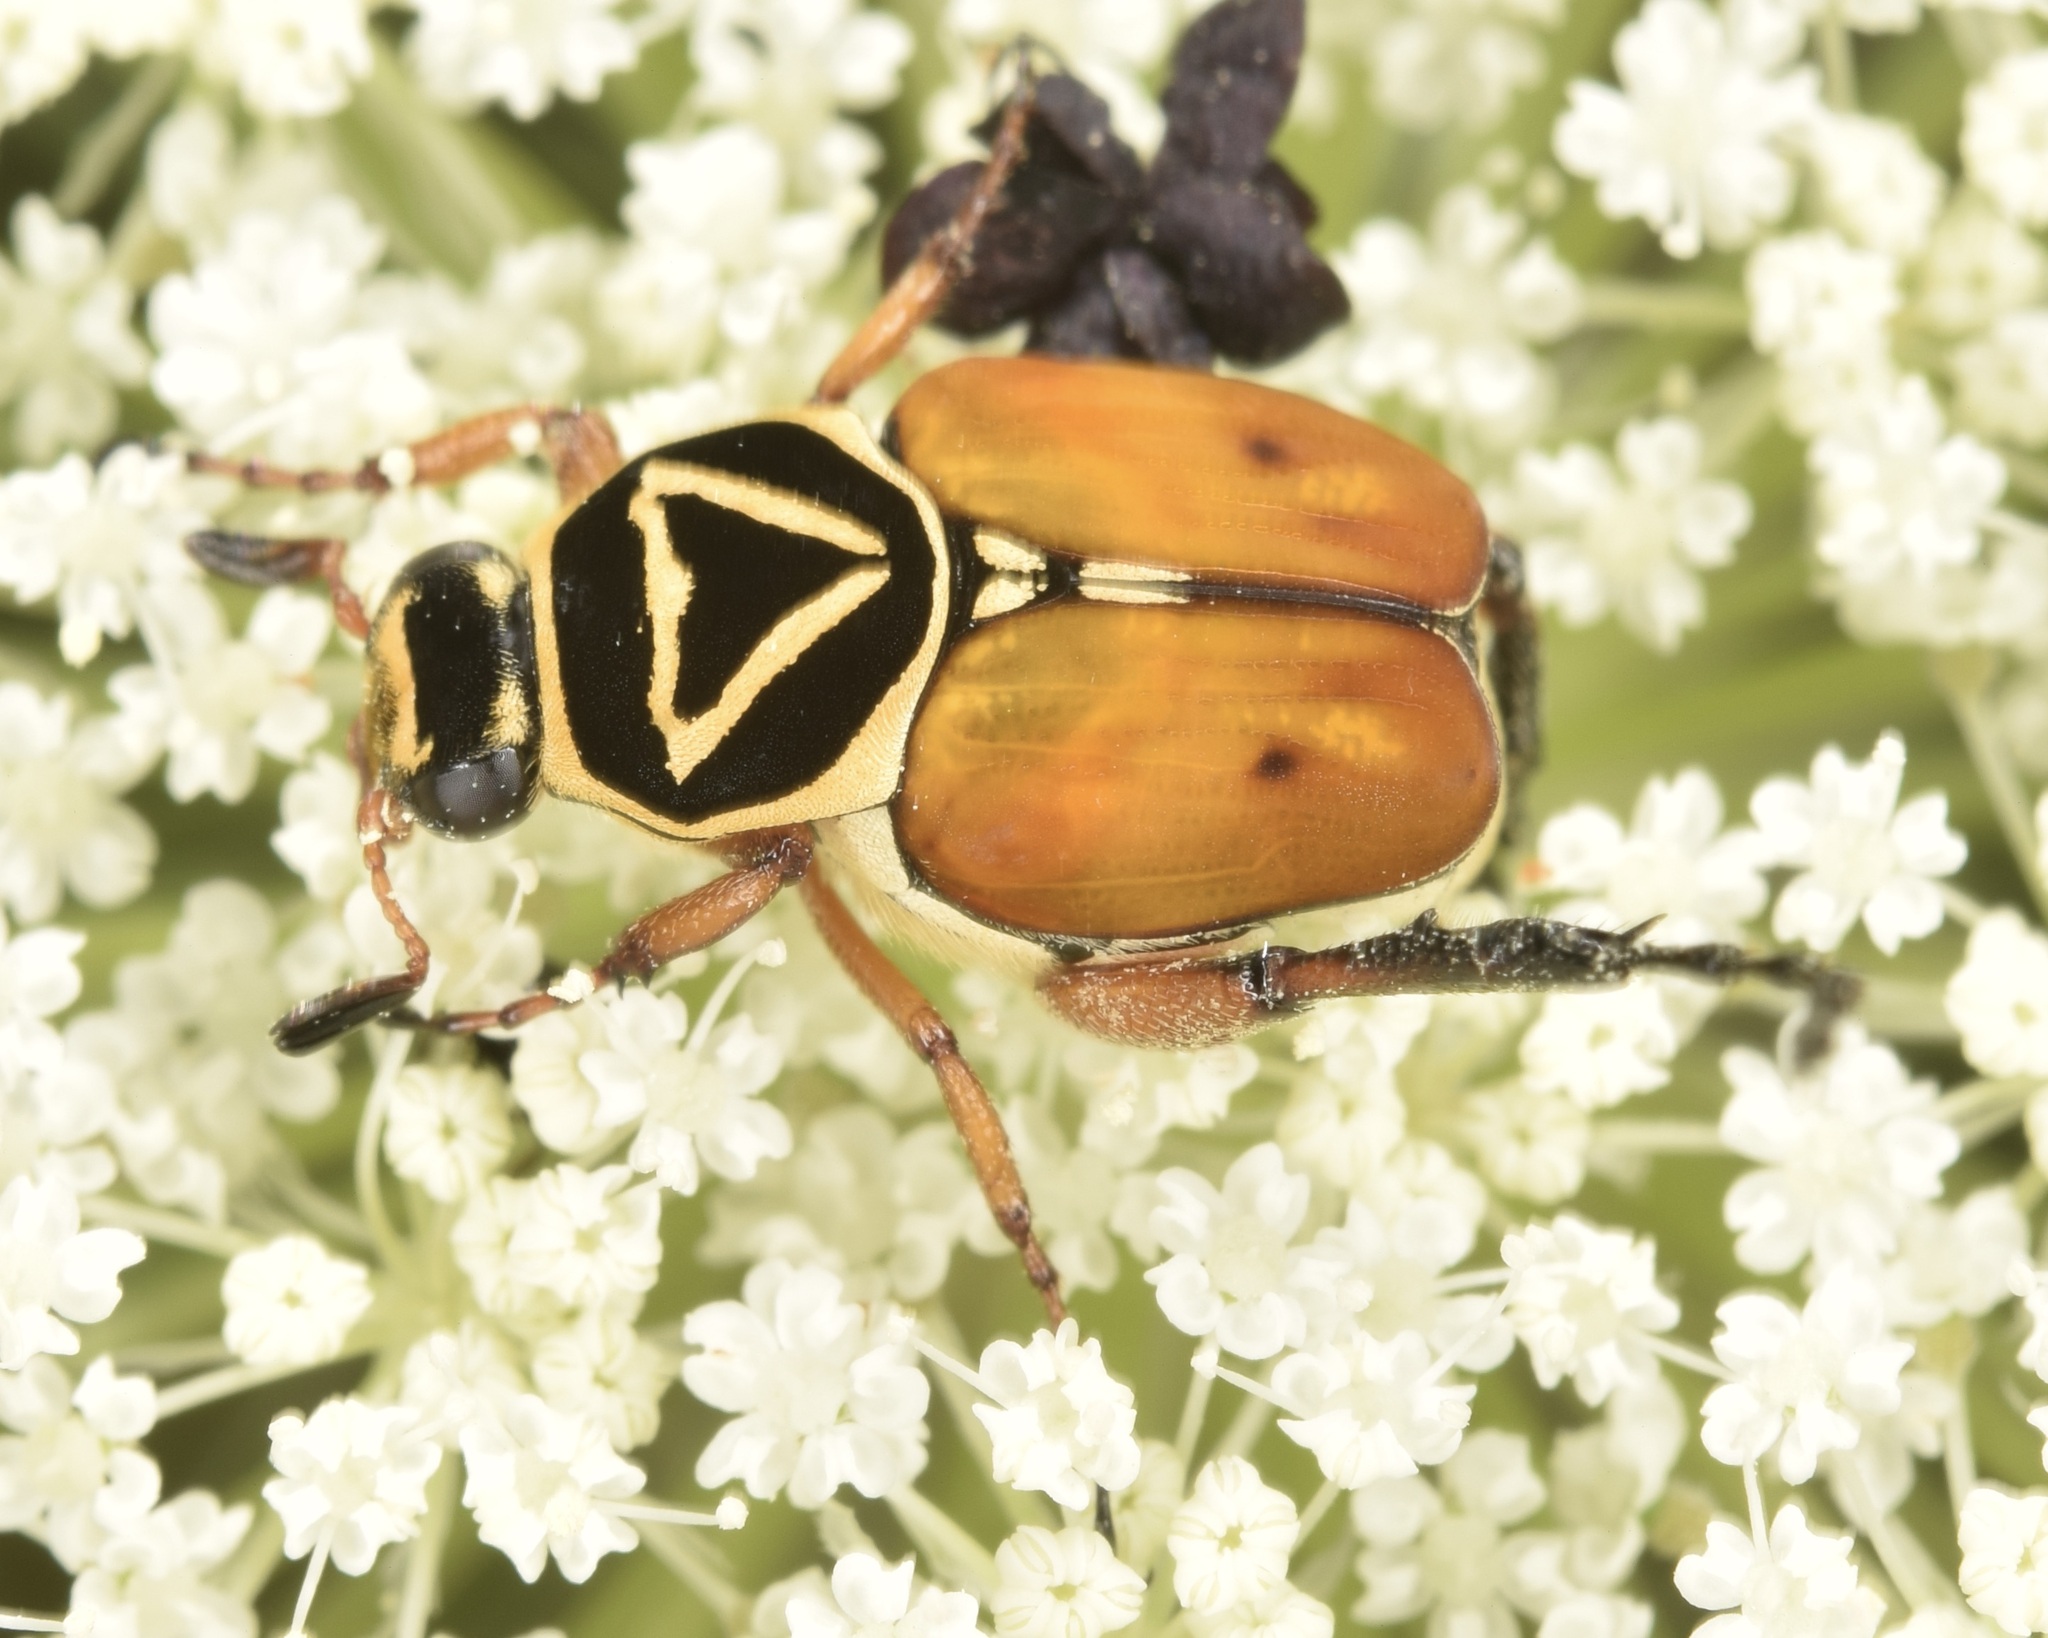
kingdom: Animalia
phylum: Arthropoda
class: Insecta
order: Coleoptera
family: Scarabaeidae
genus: Trigonopeltastes
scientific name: Trigonopeltastes delta
